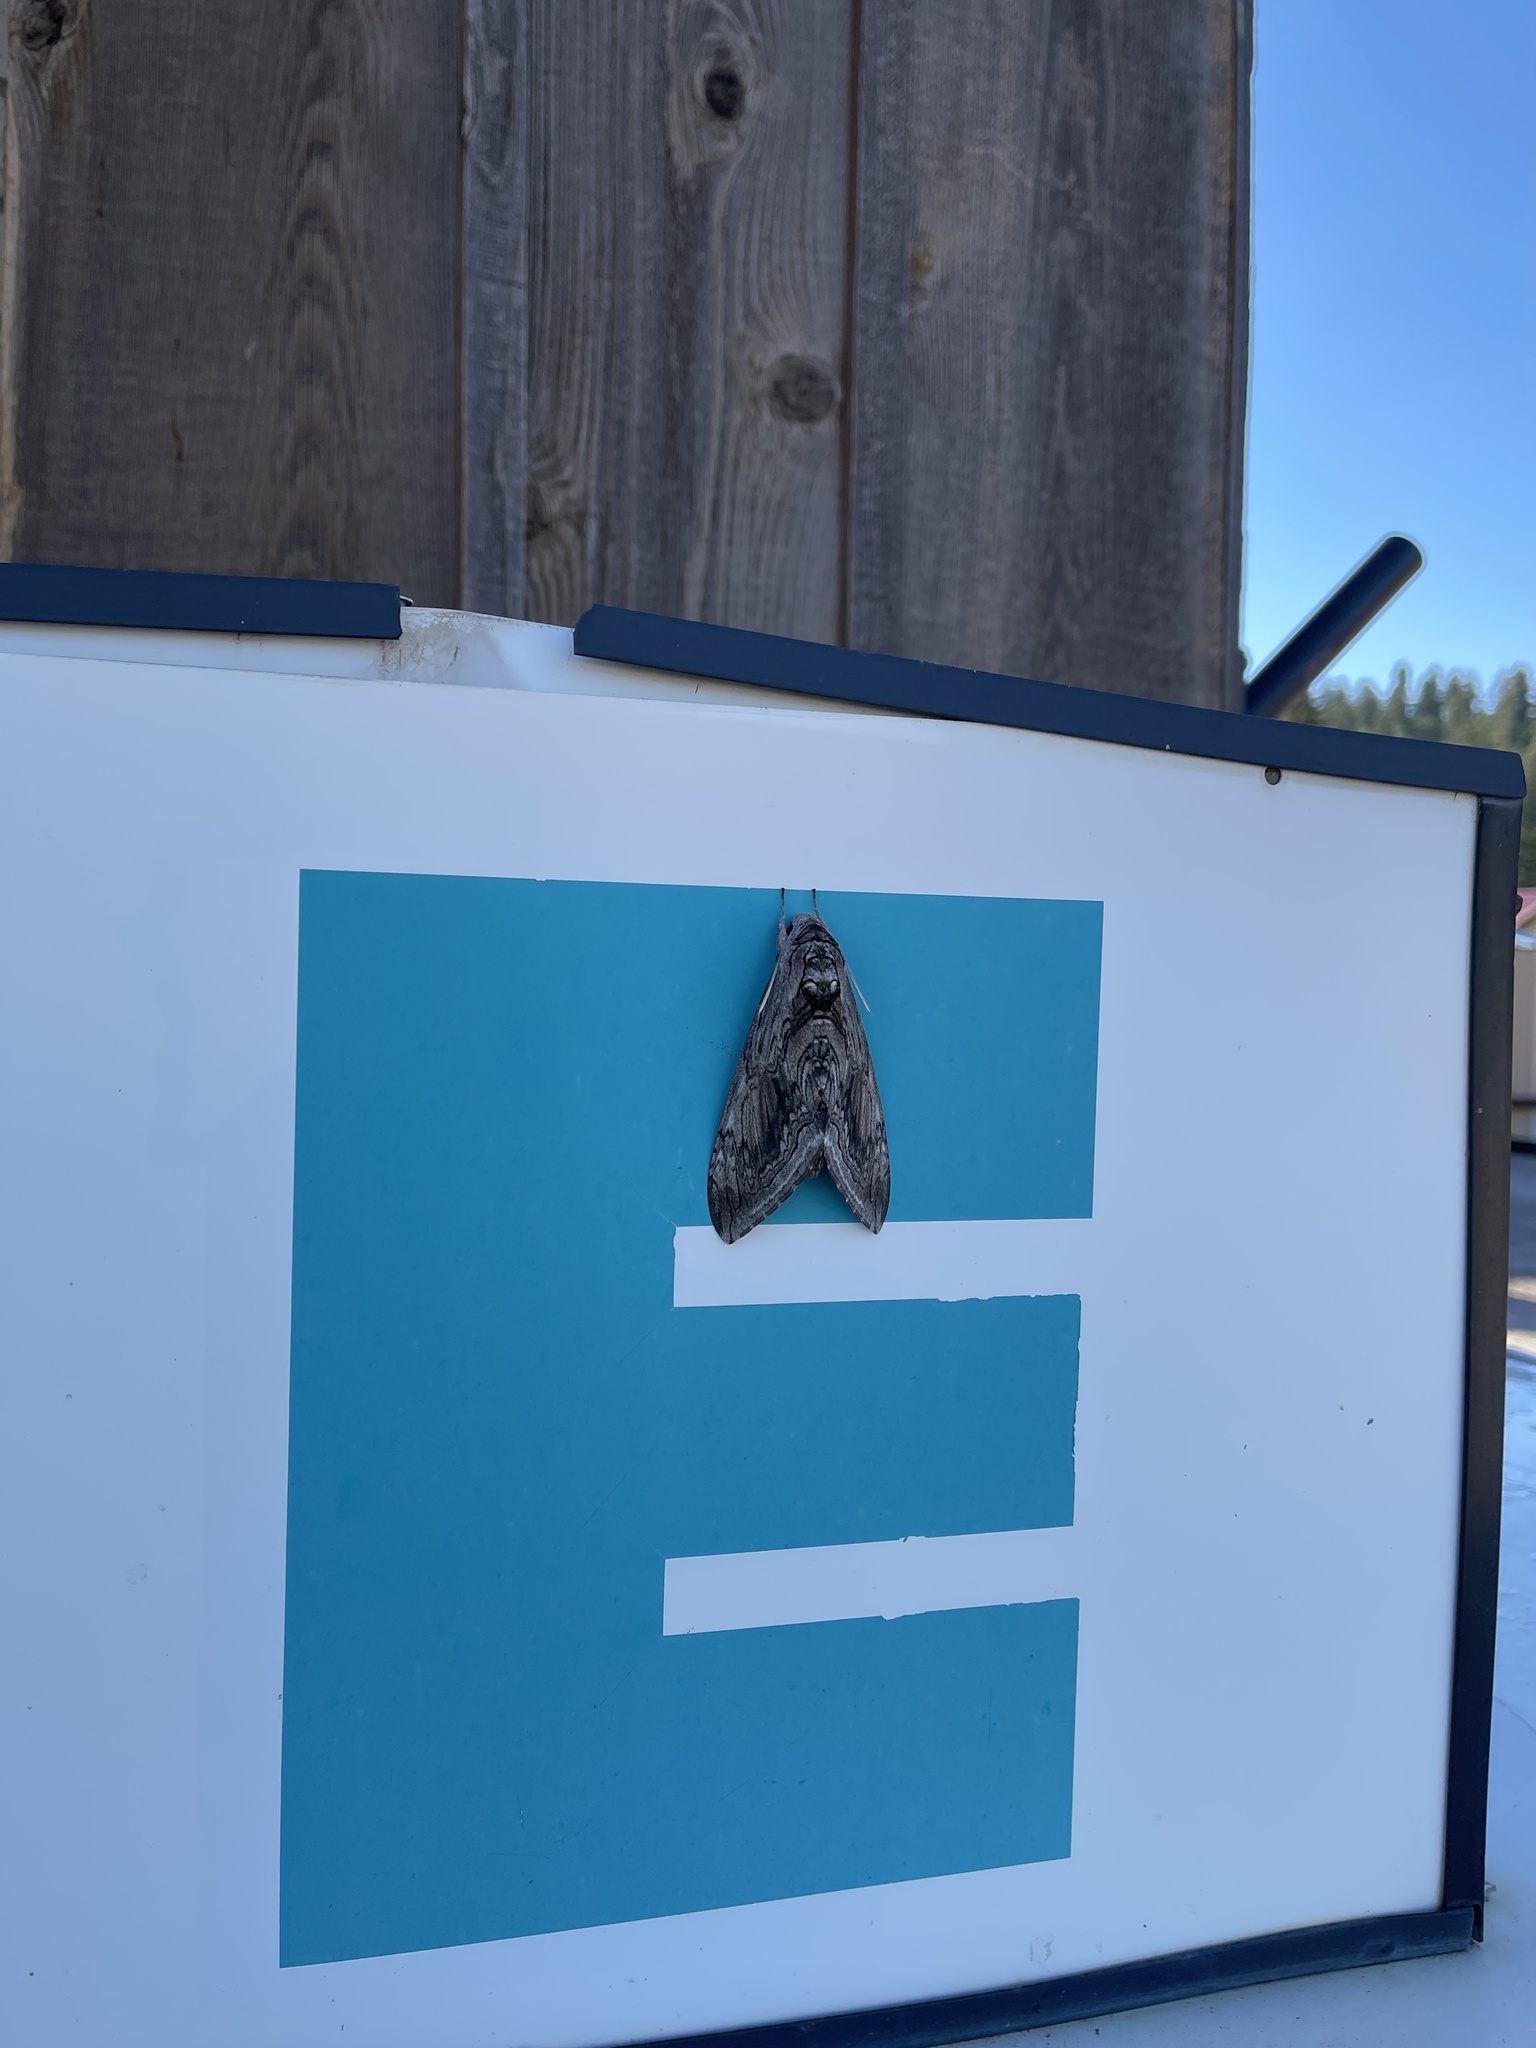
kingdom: Animalia
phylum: Arthropoda
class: Insecta
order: Lepidoptera
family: Sphingidae
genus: Manduca
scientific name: Manduca quinquemaculatus
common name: Five-spotted hawk-moth
